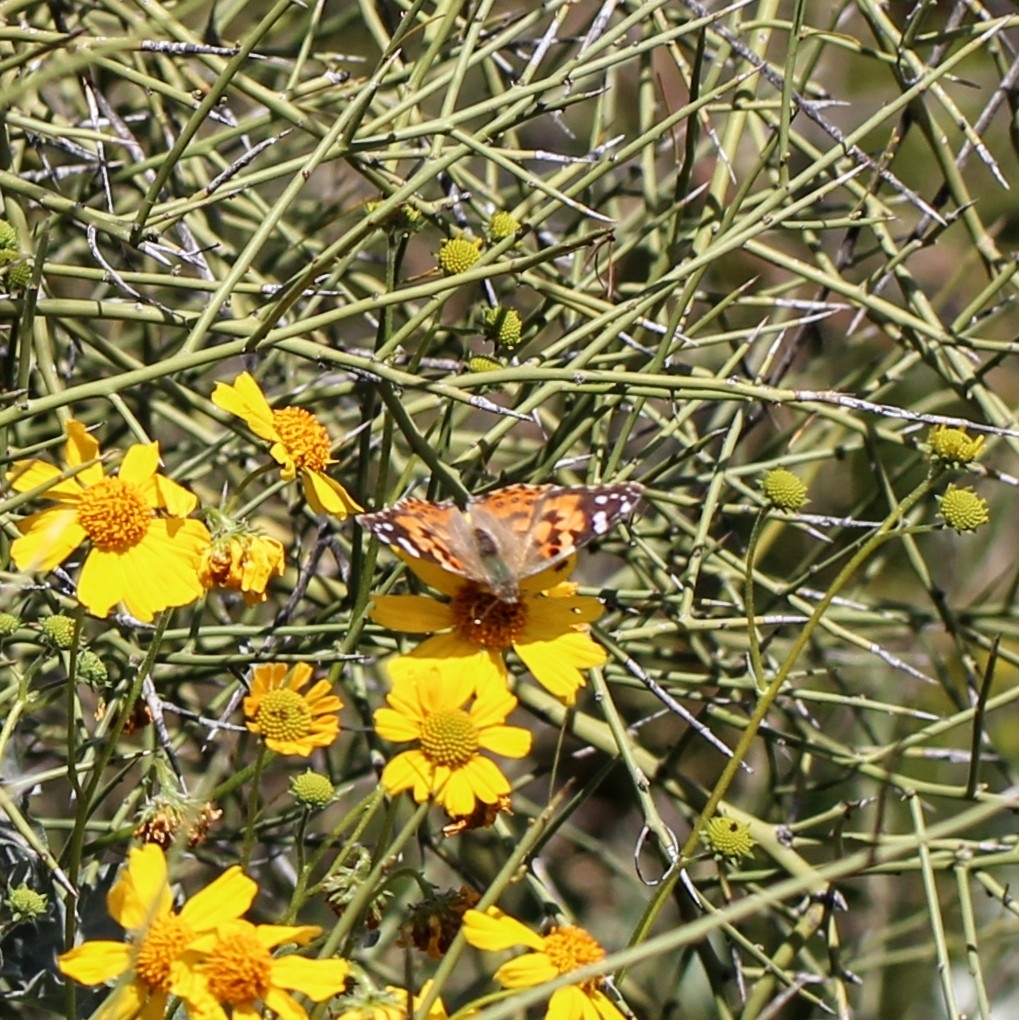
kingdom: Animalia
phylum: Arthropoda
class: Insecta
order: Lepidoptera
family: Nymphalidae
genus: Vanessa
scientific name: Vanessa cardui
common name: Painted lady
